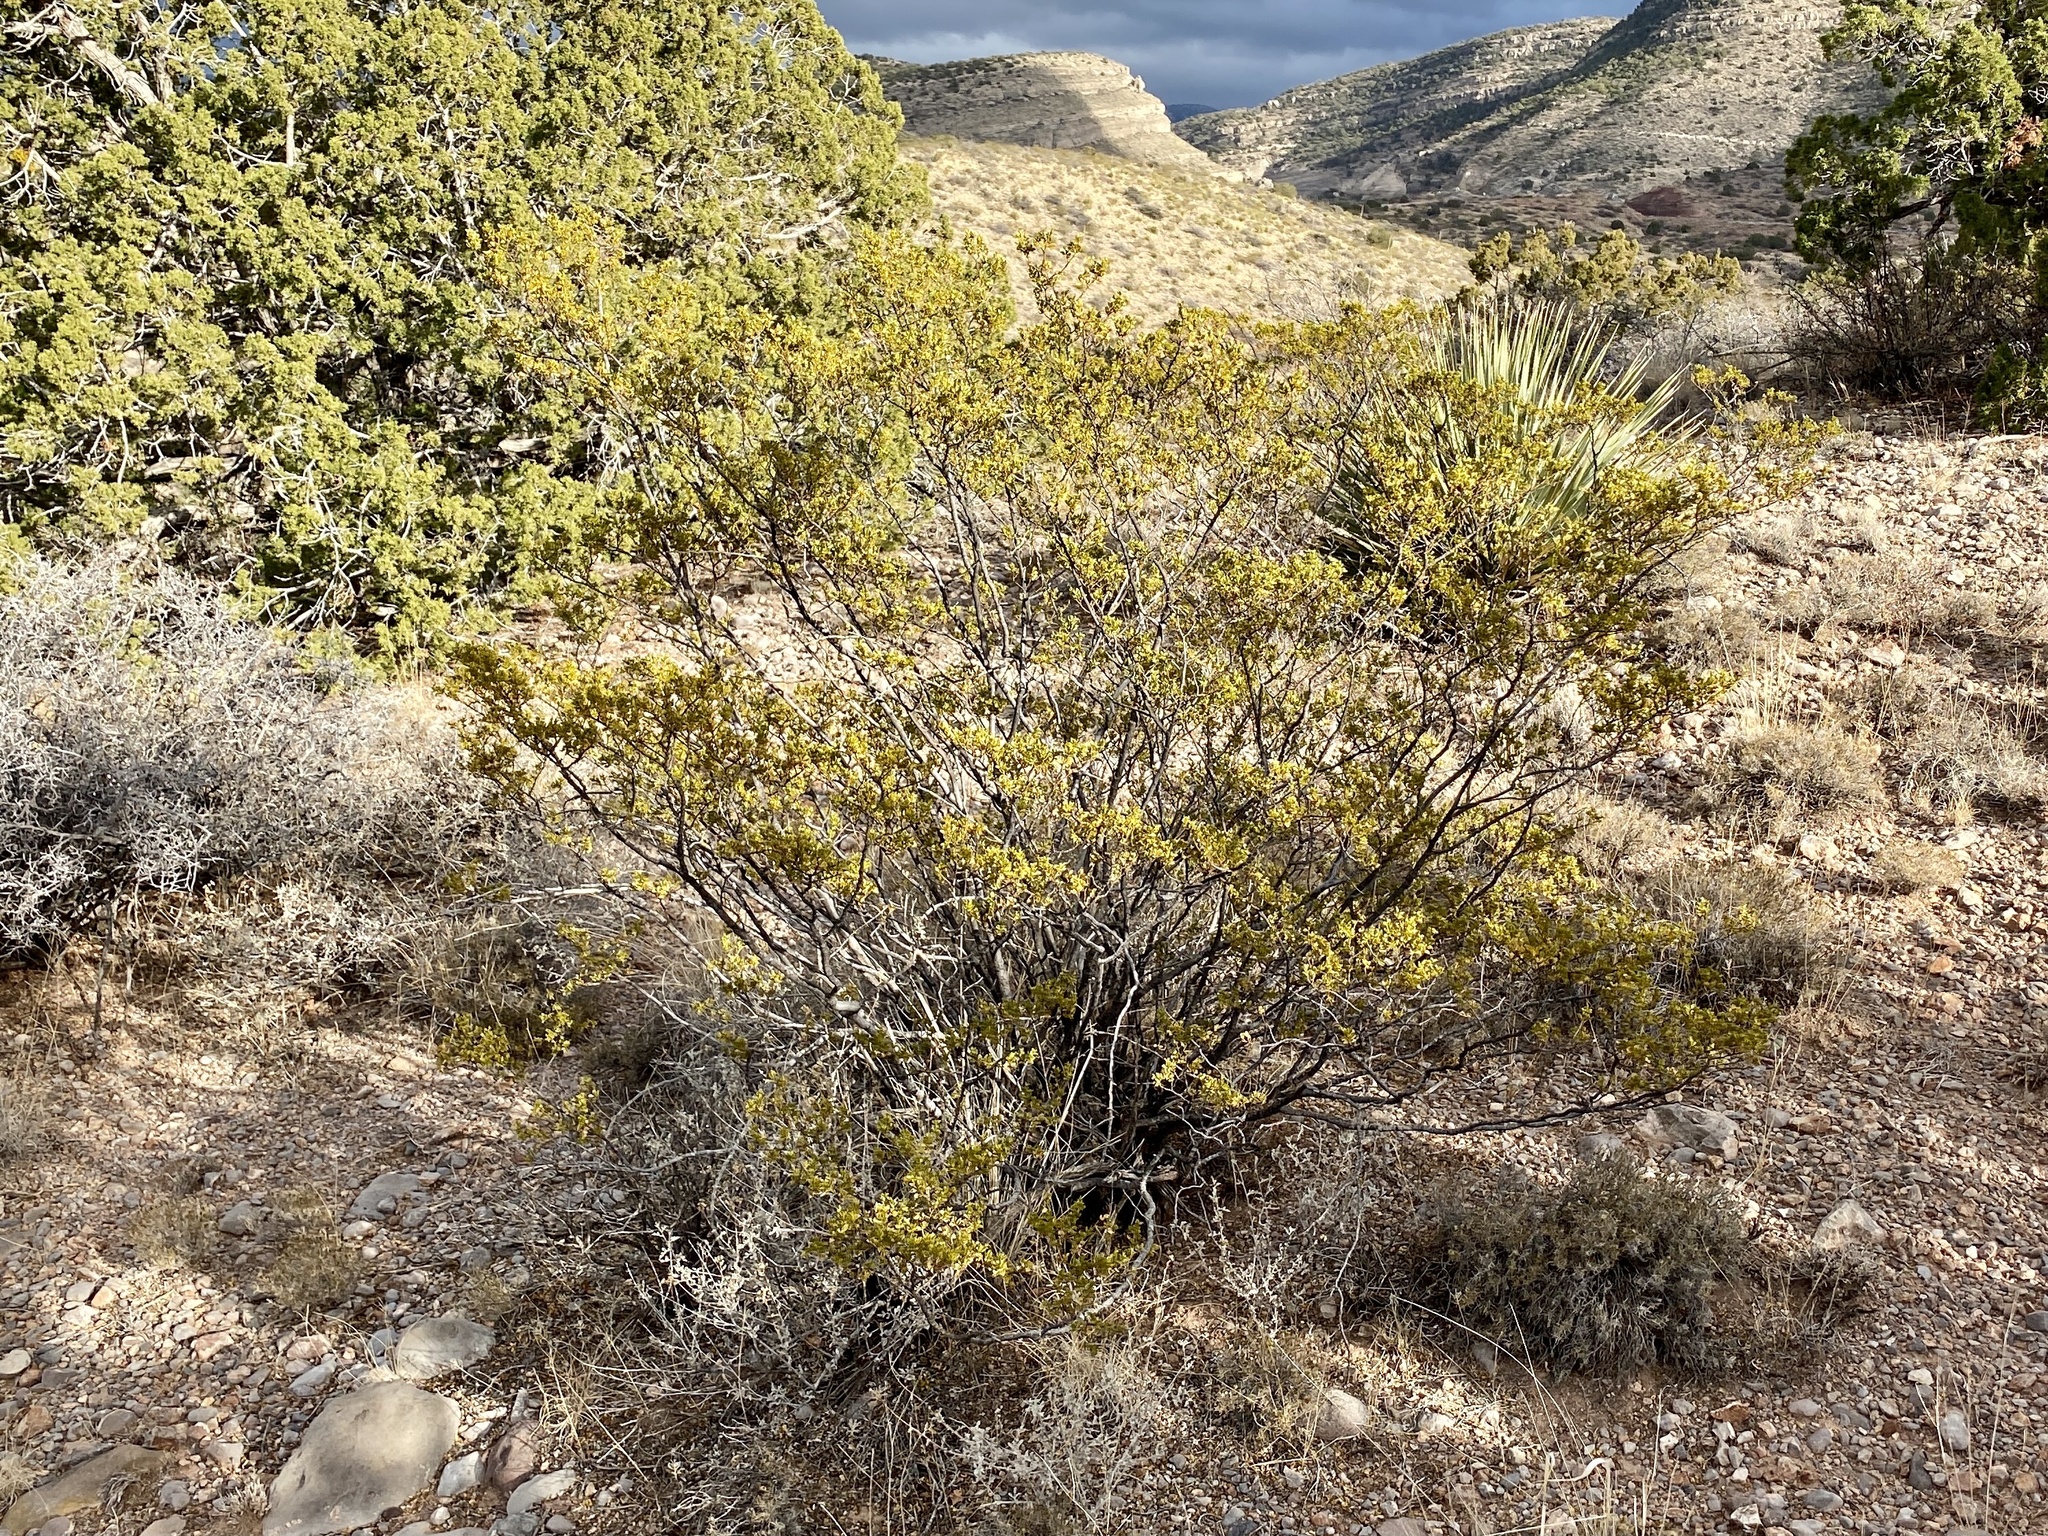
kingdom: Plantae
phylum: Tracheophyta
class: Magnoliopsida
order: Zygophyllales
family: Zygophyllaceae
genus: Larrea
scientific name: Larrea tridentata
